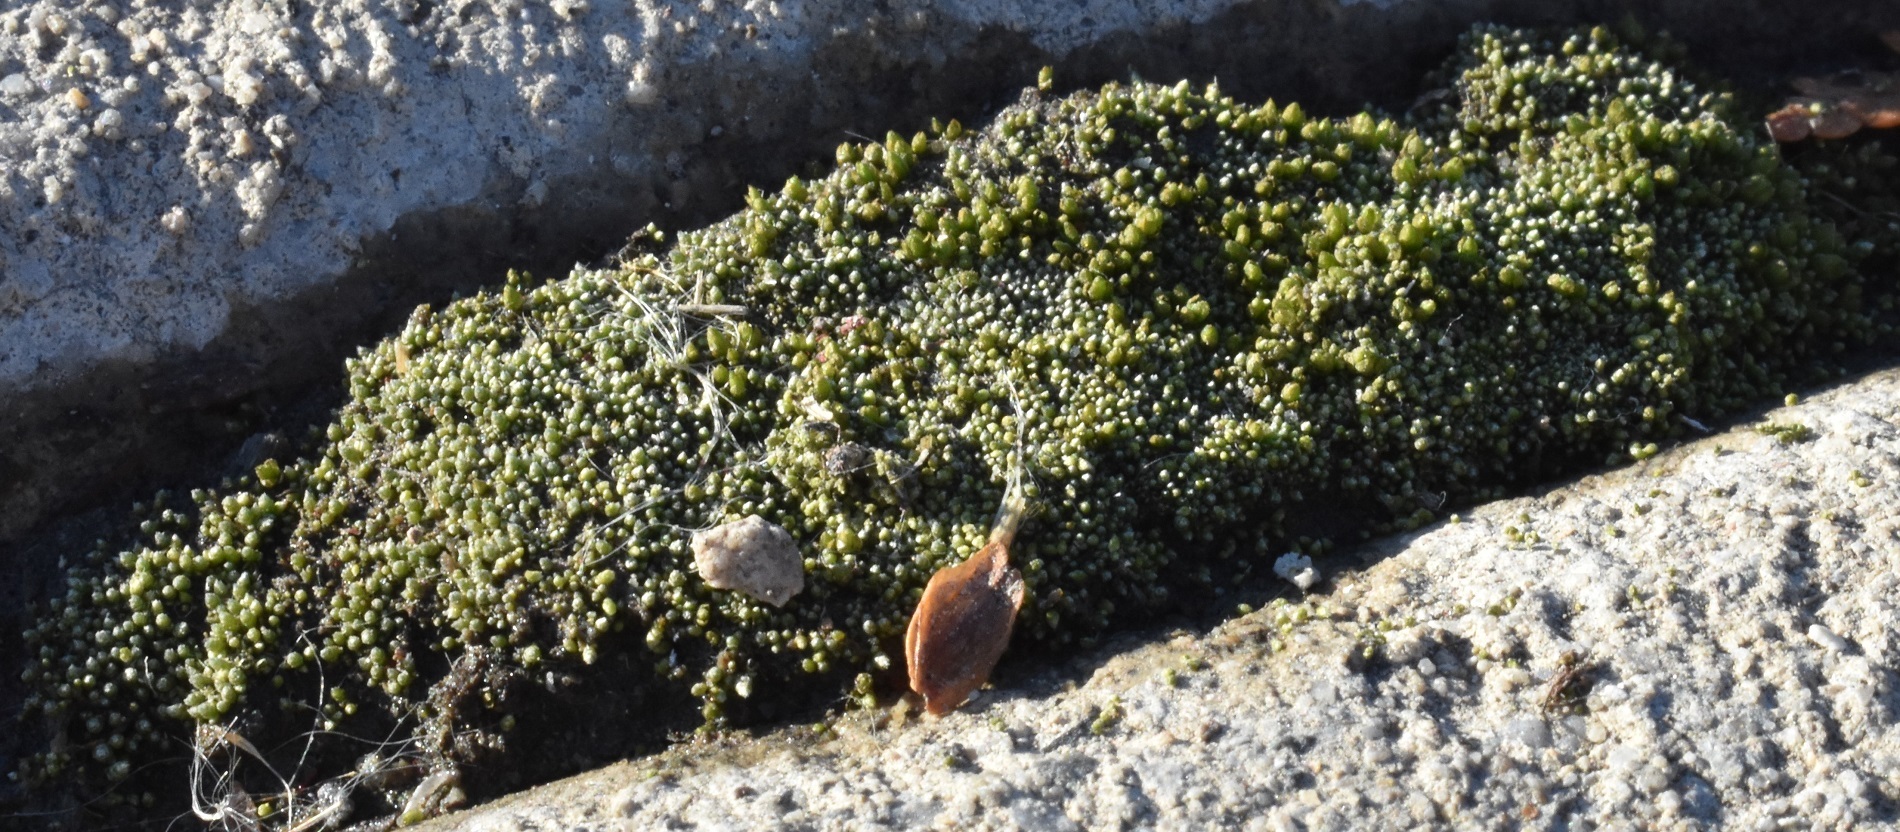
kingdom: Plantae
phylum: Bryophyta
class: Bryopsida
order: Bryales
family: Bryaceae
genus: Bryum
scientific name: Bryum argenteum
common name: Silver-moss
